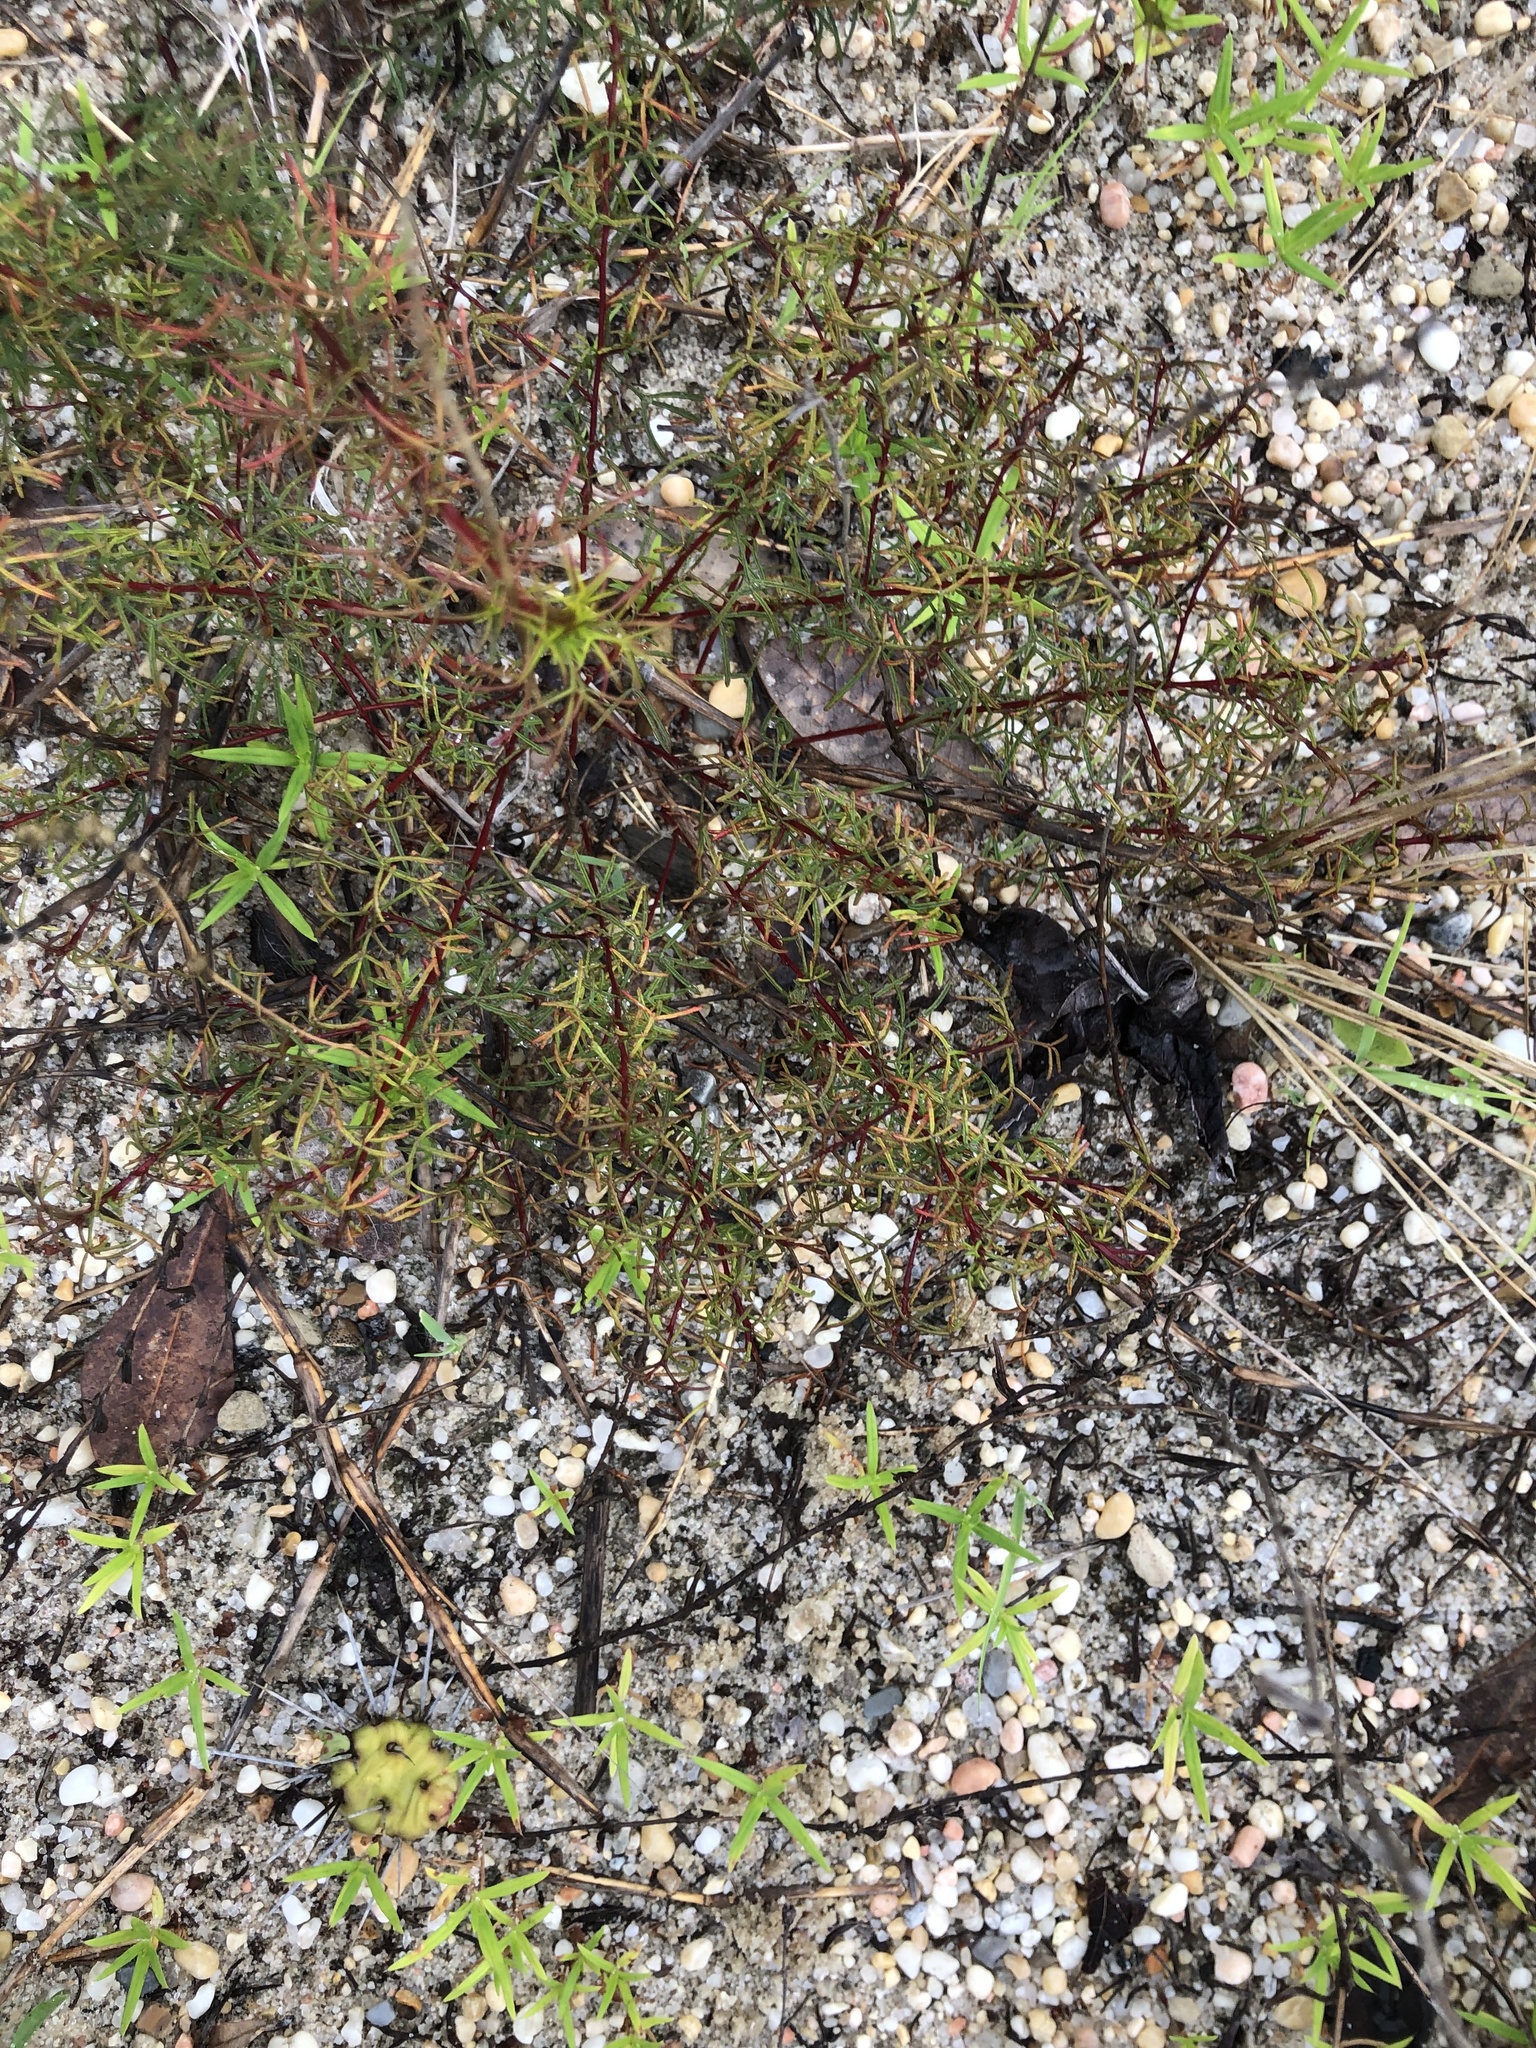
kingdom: Plantae
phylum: Tracheophyta
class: Magnoliopsida
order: Fabales
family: Fabaceae
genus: Dalea
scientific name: Dalea pinnata
